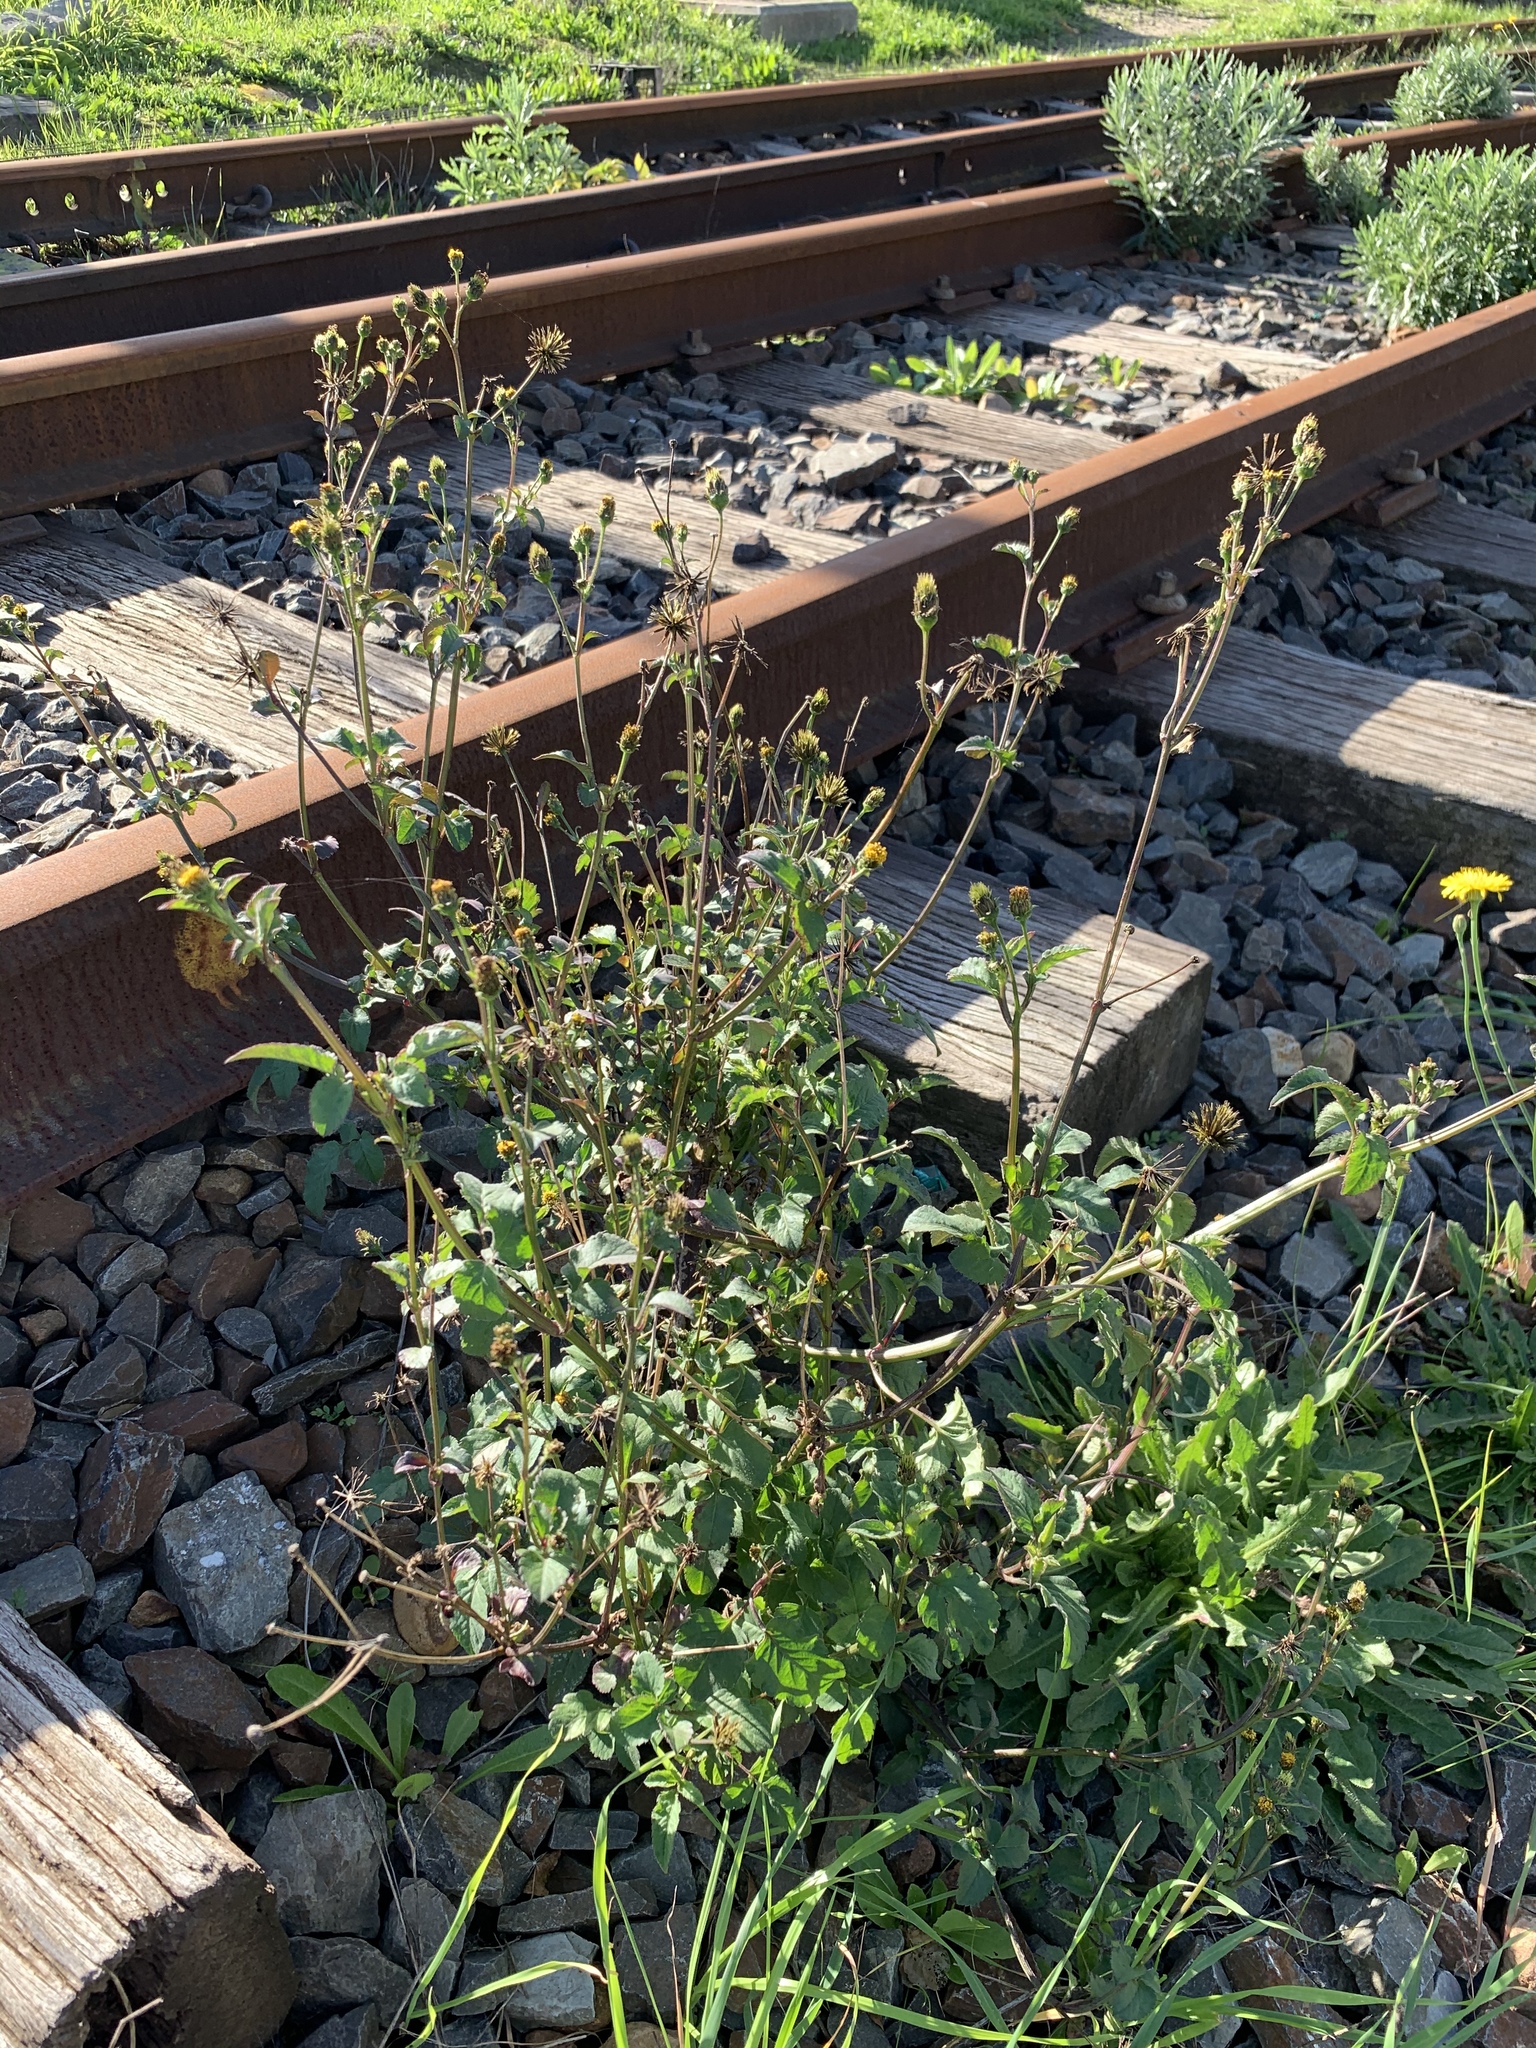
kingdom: Plantae
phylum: Tracheophyta
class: Magnoliopsida
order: Asterales
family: Asteraceae
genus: Bidens
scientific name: Bidens pilosa
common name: Black-jack
